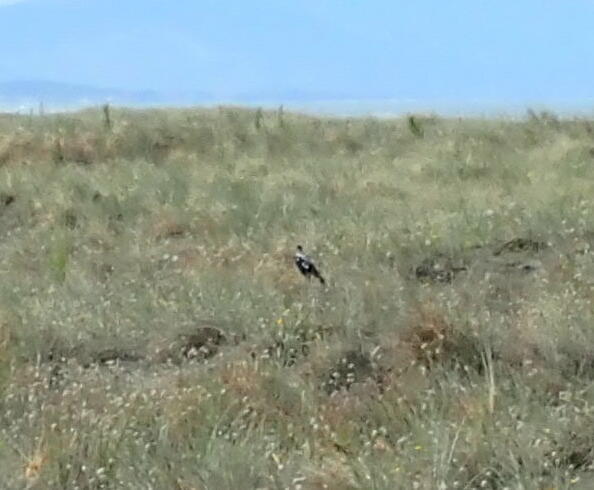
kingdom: Animalia
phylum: Chordata
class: Aves
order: Passeriformes
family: Cracticidae
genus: Gymnorhina
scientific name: Gymnorhina tibicen
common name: Australian magpie
